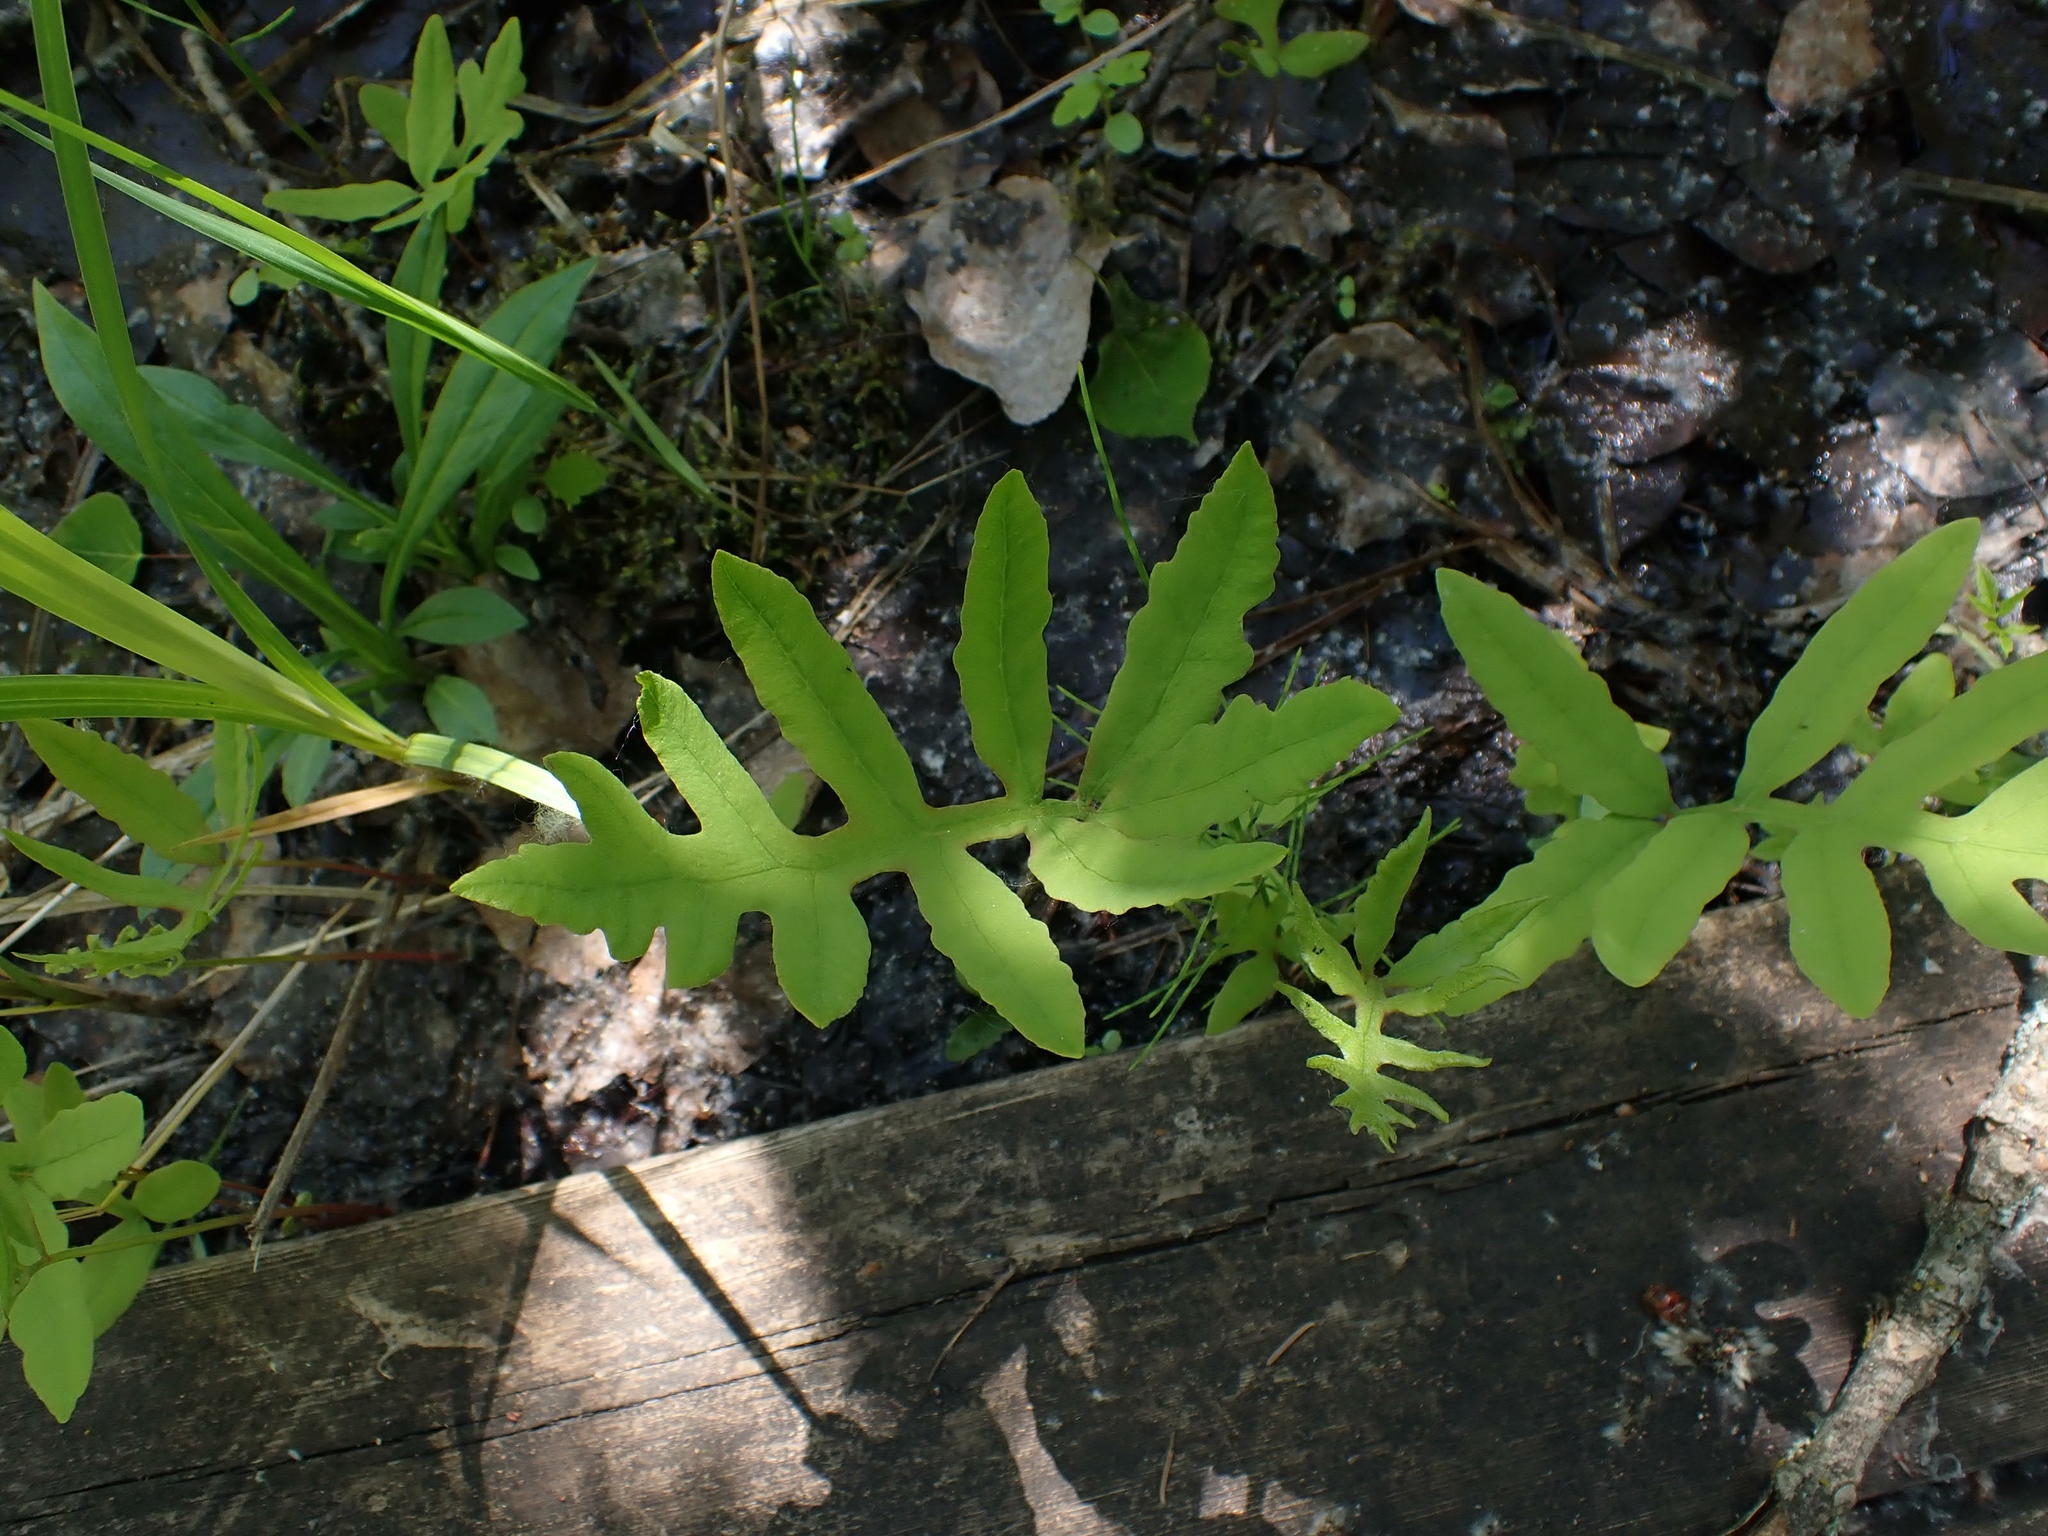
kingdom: Plantae
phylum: Tracheophyta
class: Polypodiopsida
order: Polypodiales
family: Onocleaceae
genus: Onoclea
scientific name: Onoclea sensibilis
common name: Sensitive fern
